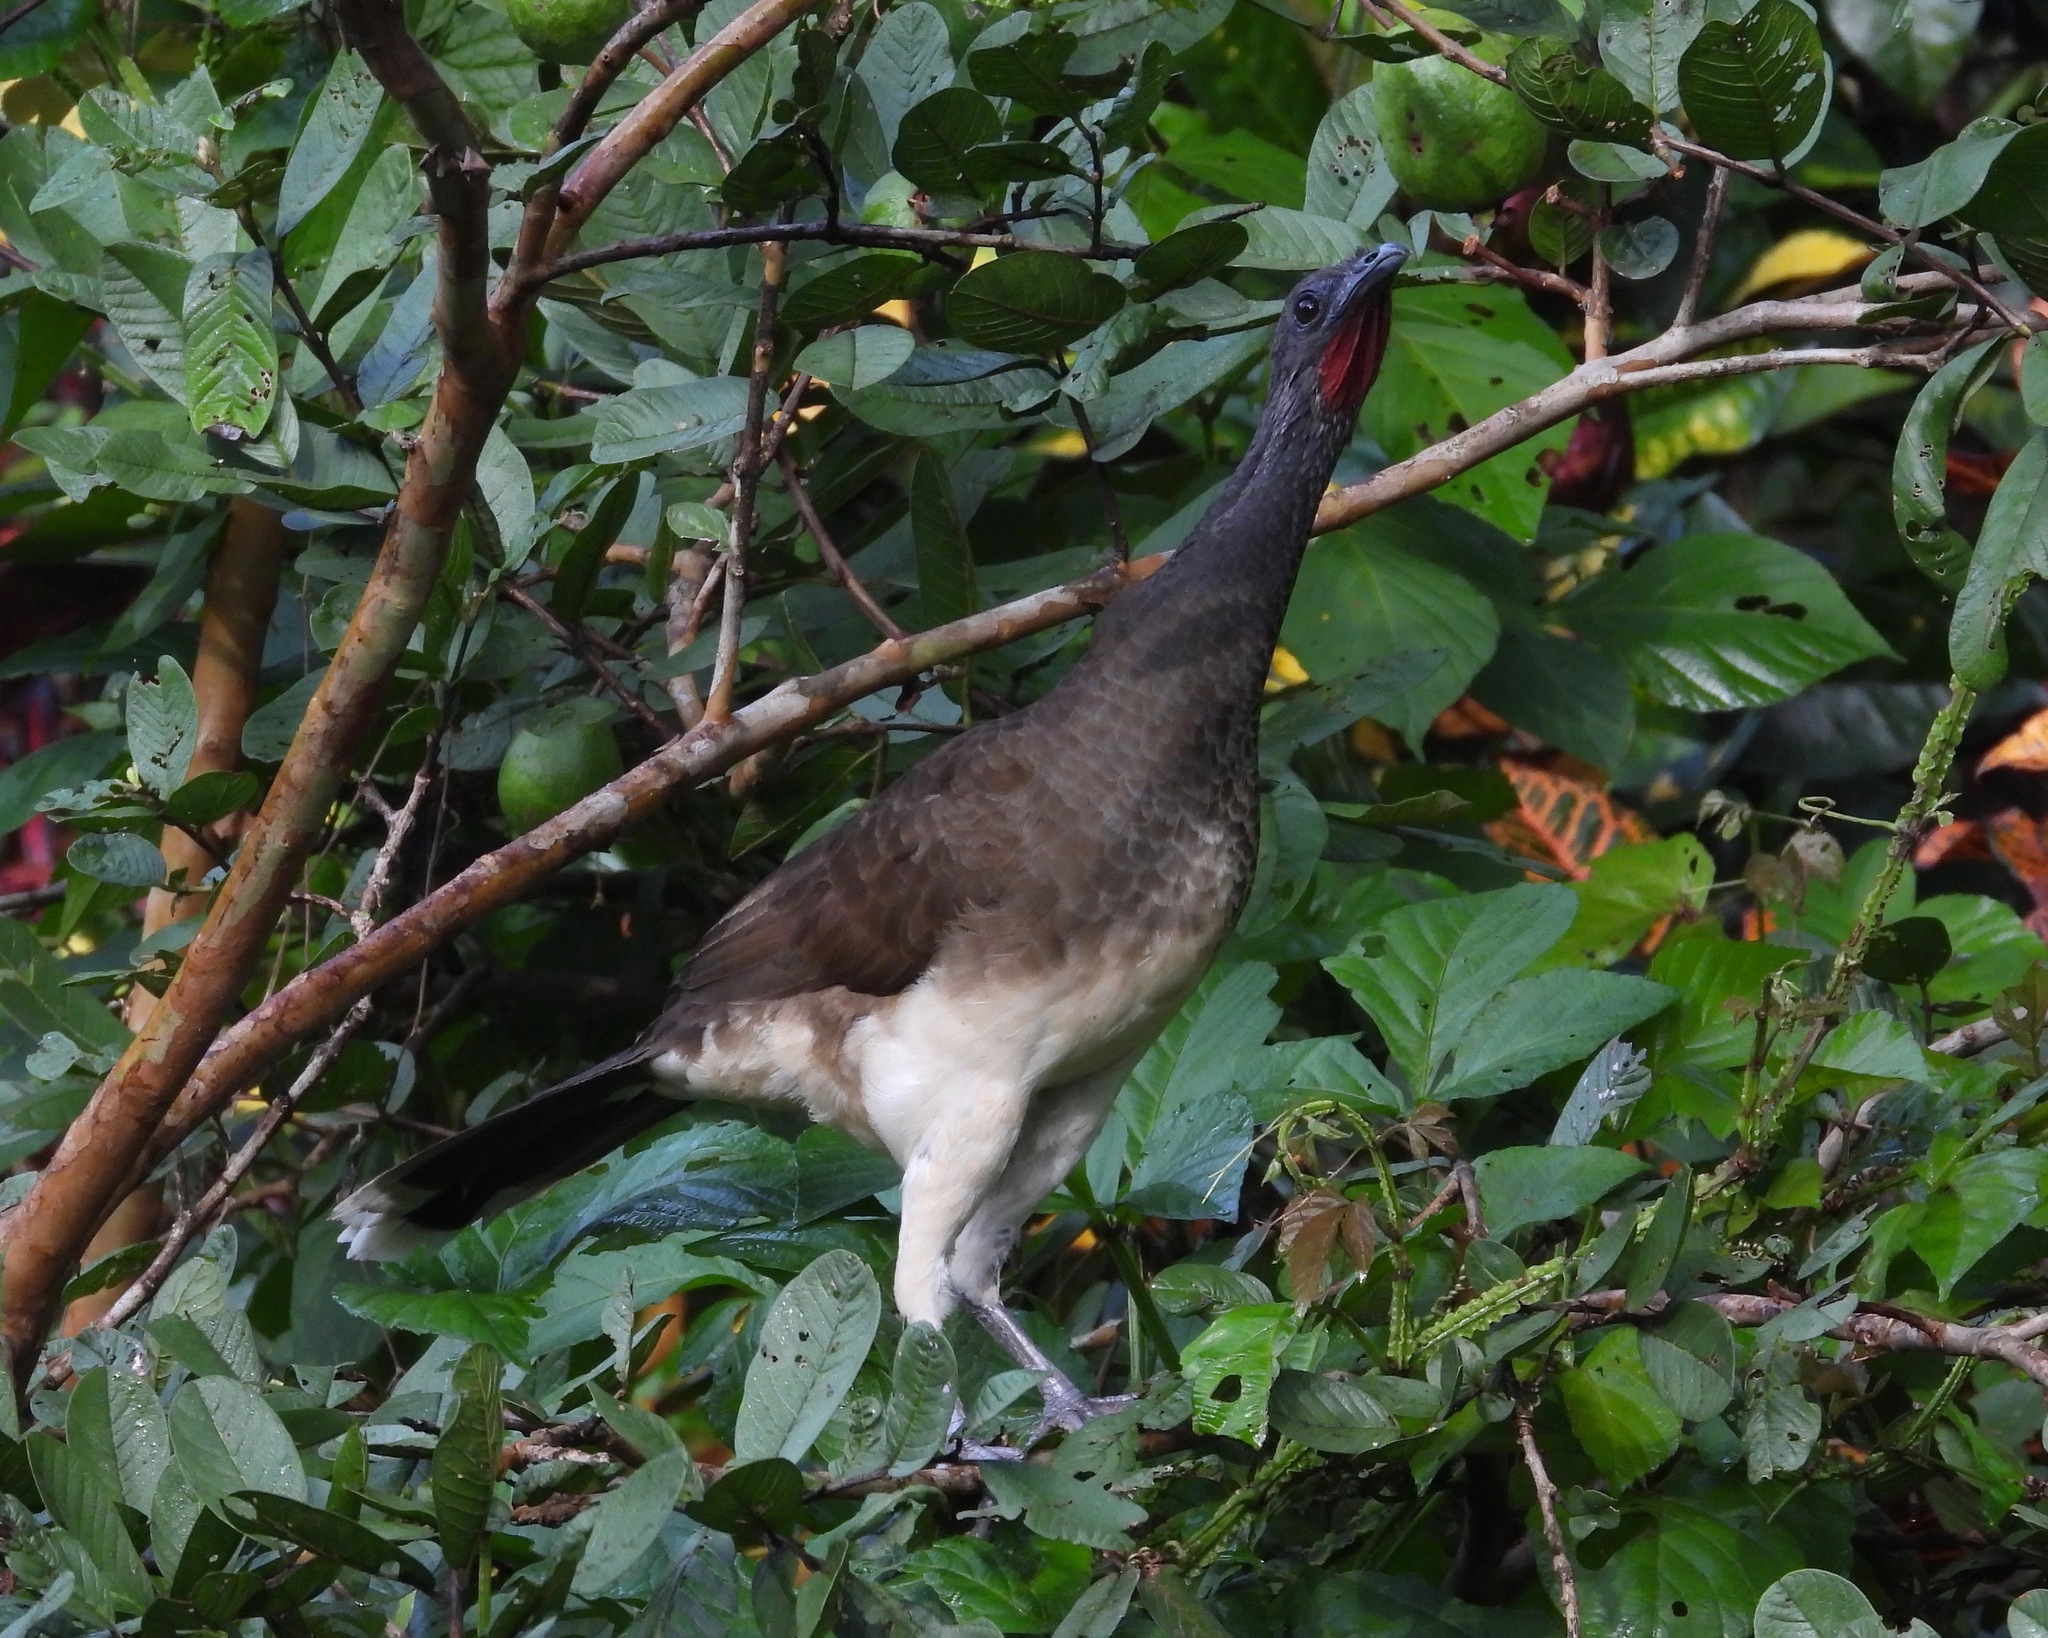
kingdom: Animalia
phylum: Chordata
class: Aves
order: Galliformes
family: Cracidae
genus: Ortalis
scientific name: Ortalis leucogastra
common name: White-bellied chachalaca
